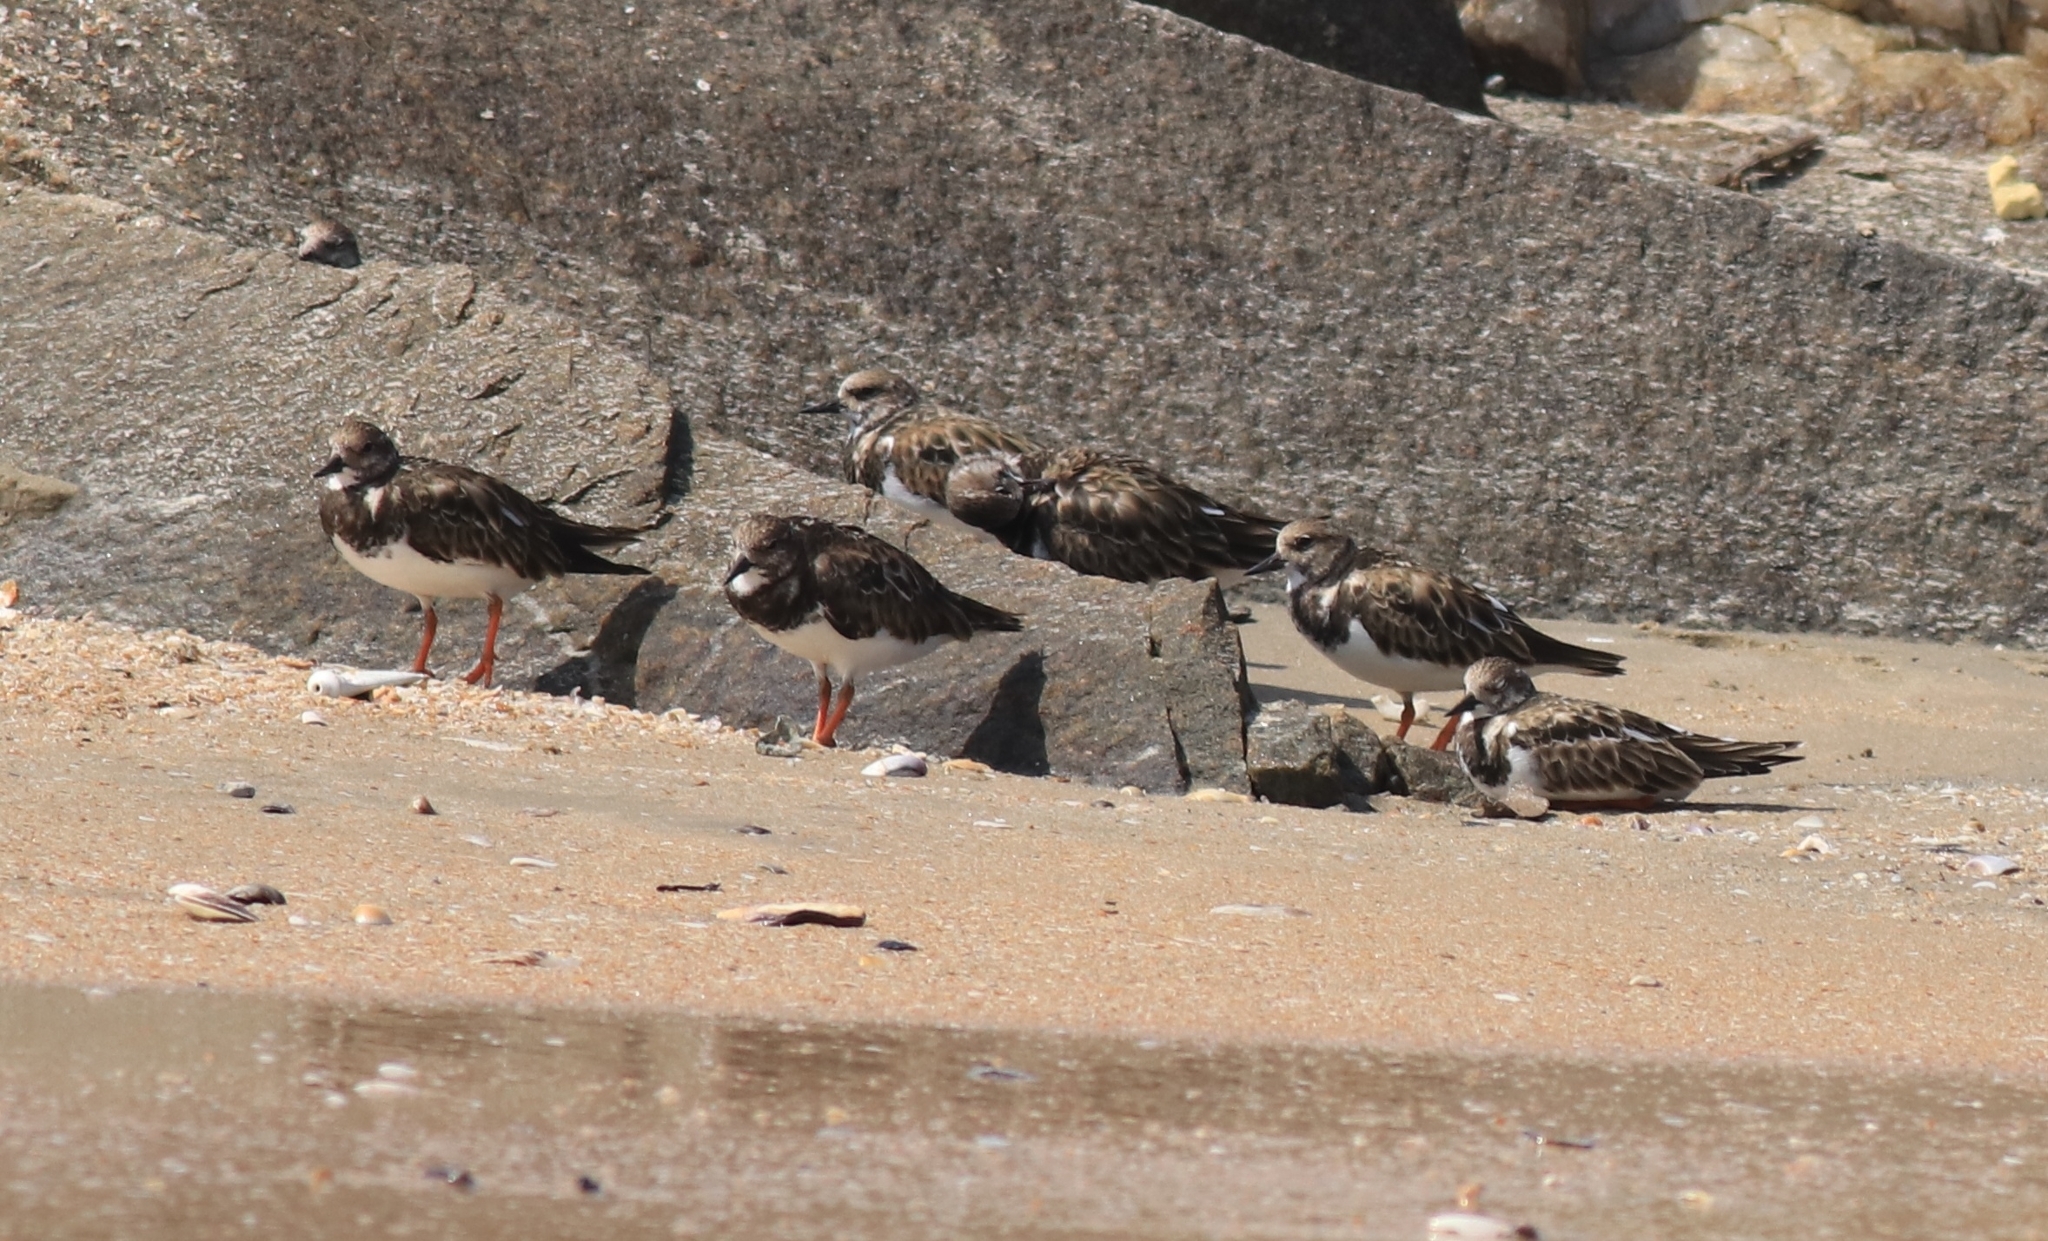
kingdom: Animalia
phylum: Chordata
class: Aves
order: Charadriiformes
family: Scolopacidae
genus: Arenaria
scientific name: Arenaria interpres
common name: Ruddy turnstone
